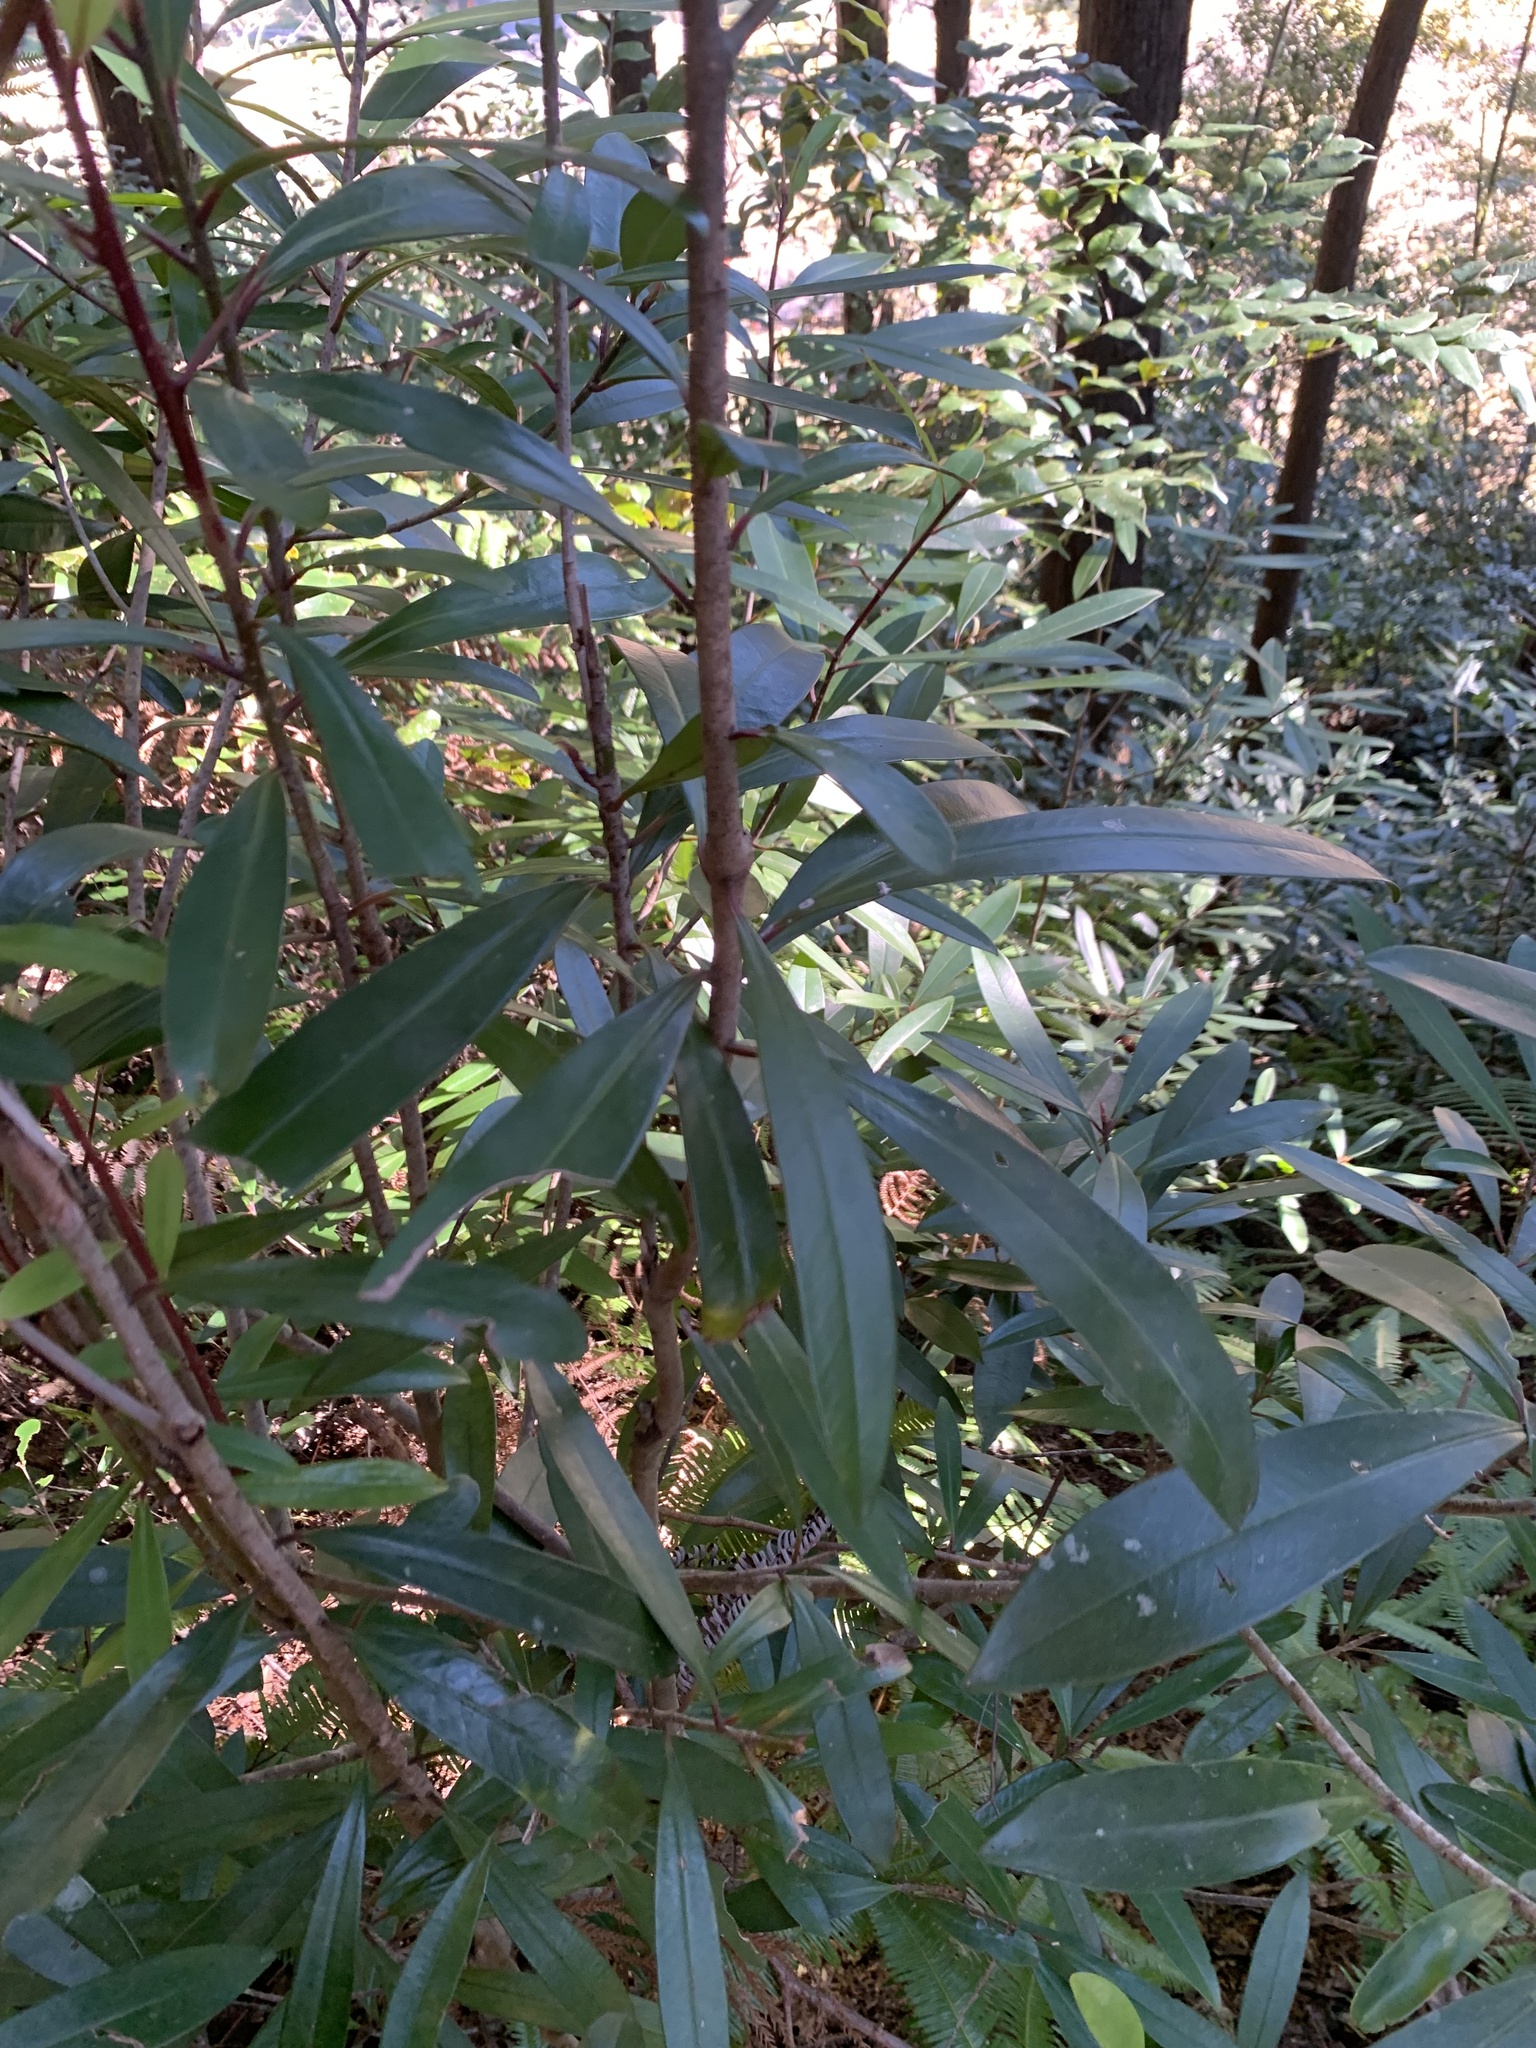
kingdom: Plantae
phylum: Tracheophyta
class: Magnoliopsida
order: Ericales
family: Primulaceae
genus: Myrsine
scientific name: Myrsine seguinii
